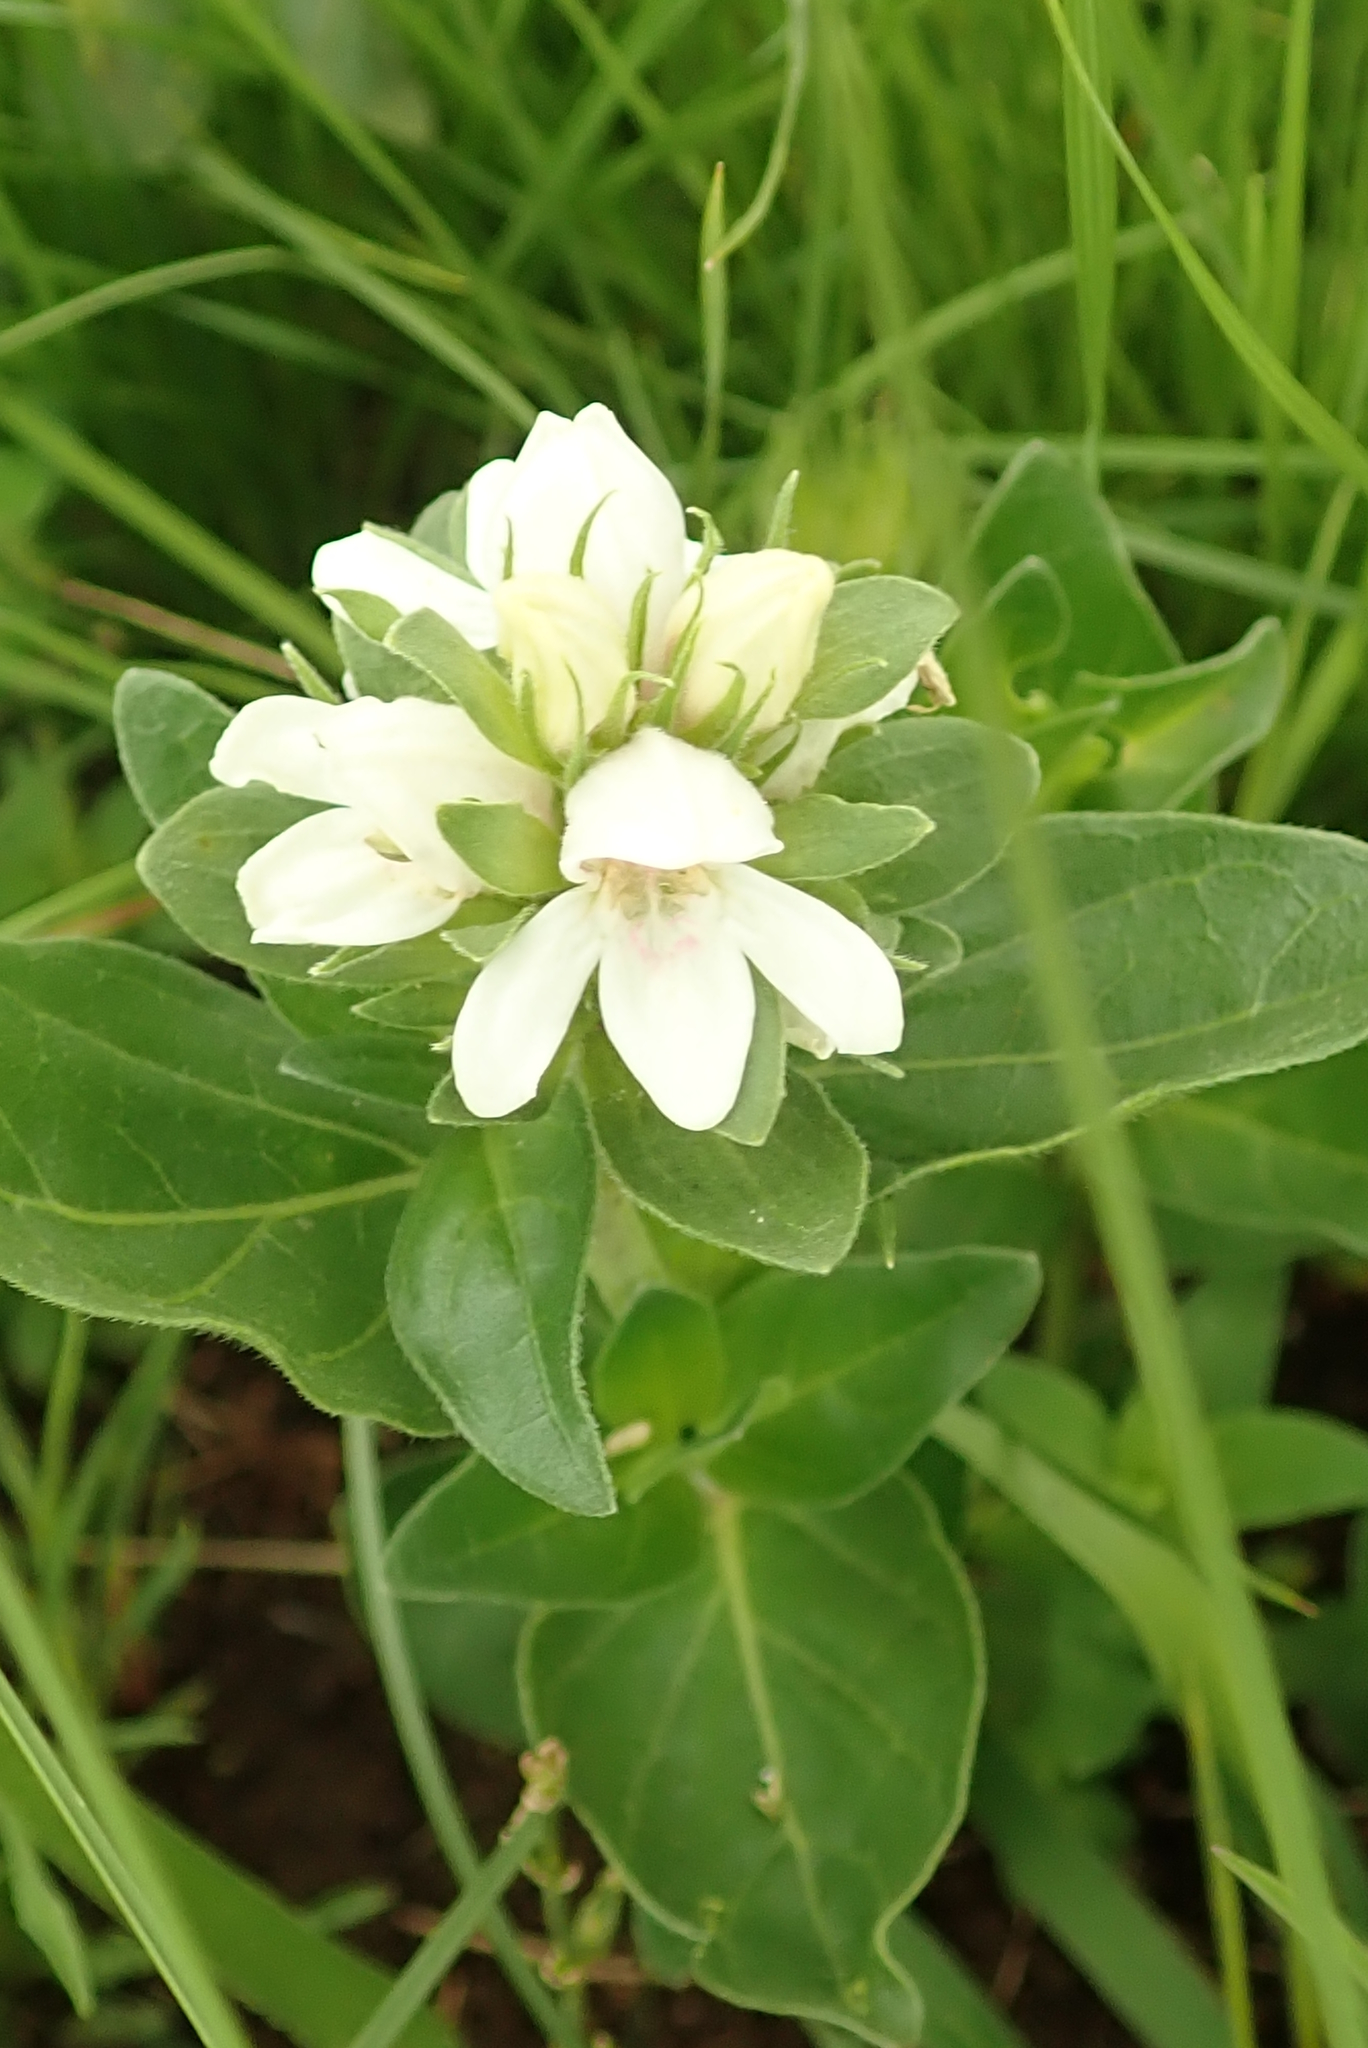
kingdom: Plantae
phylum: Tracheophyta
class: Magnoliopsida
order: Lamiales
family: Acanthaceae
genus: Justicia
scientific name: Justicia andromeda
